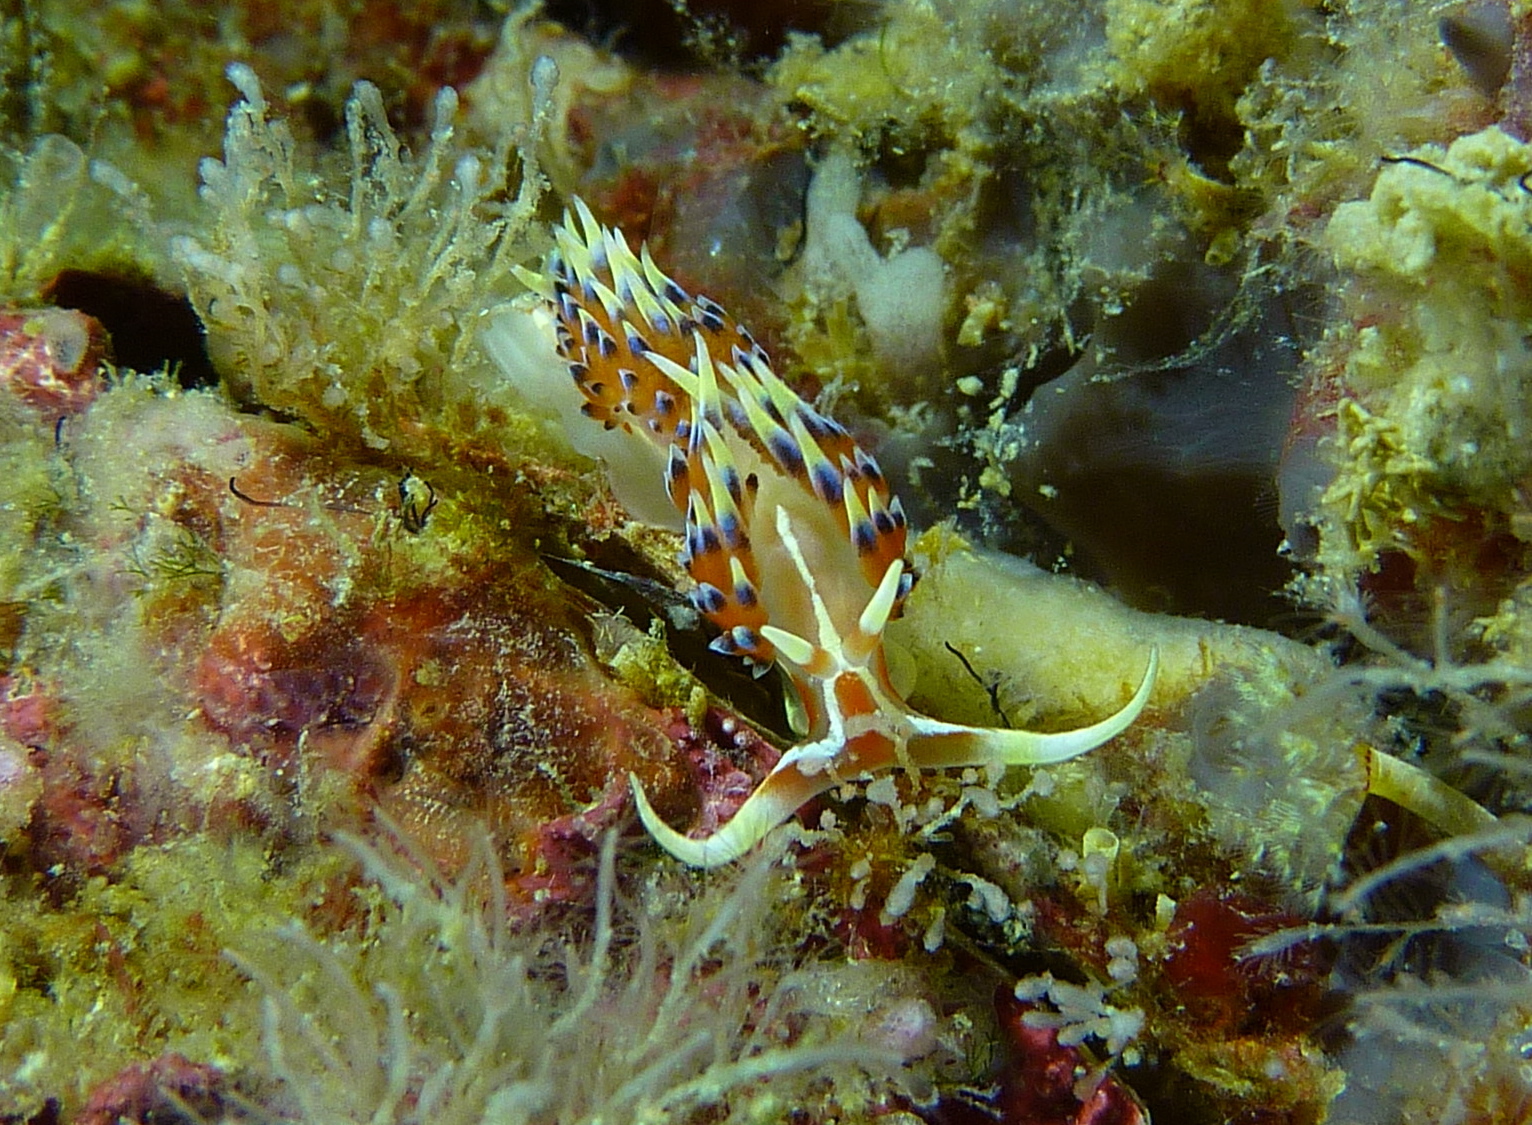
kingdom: Animalia
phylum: Mollusca
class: Gastropoda
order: Nudibranchia
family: Facelinidae
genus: Caloria
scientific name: Caloria indica
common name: Sea slug
